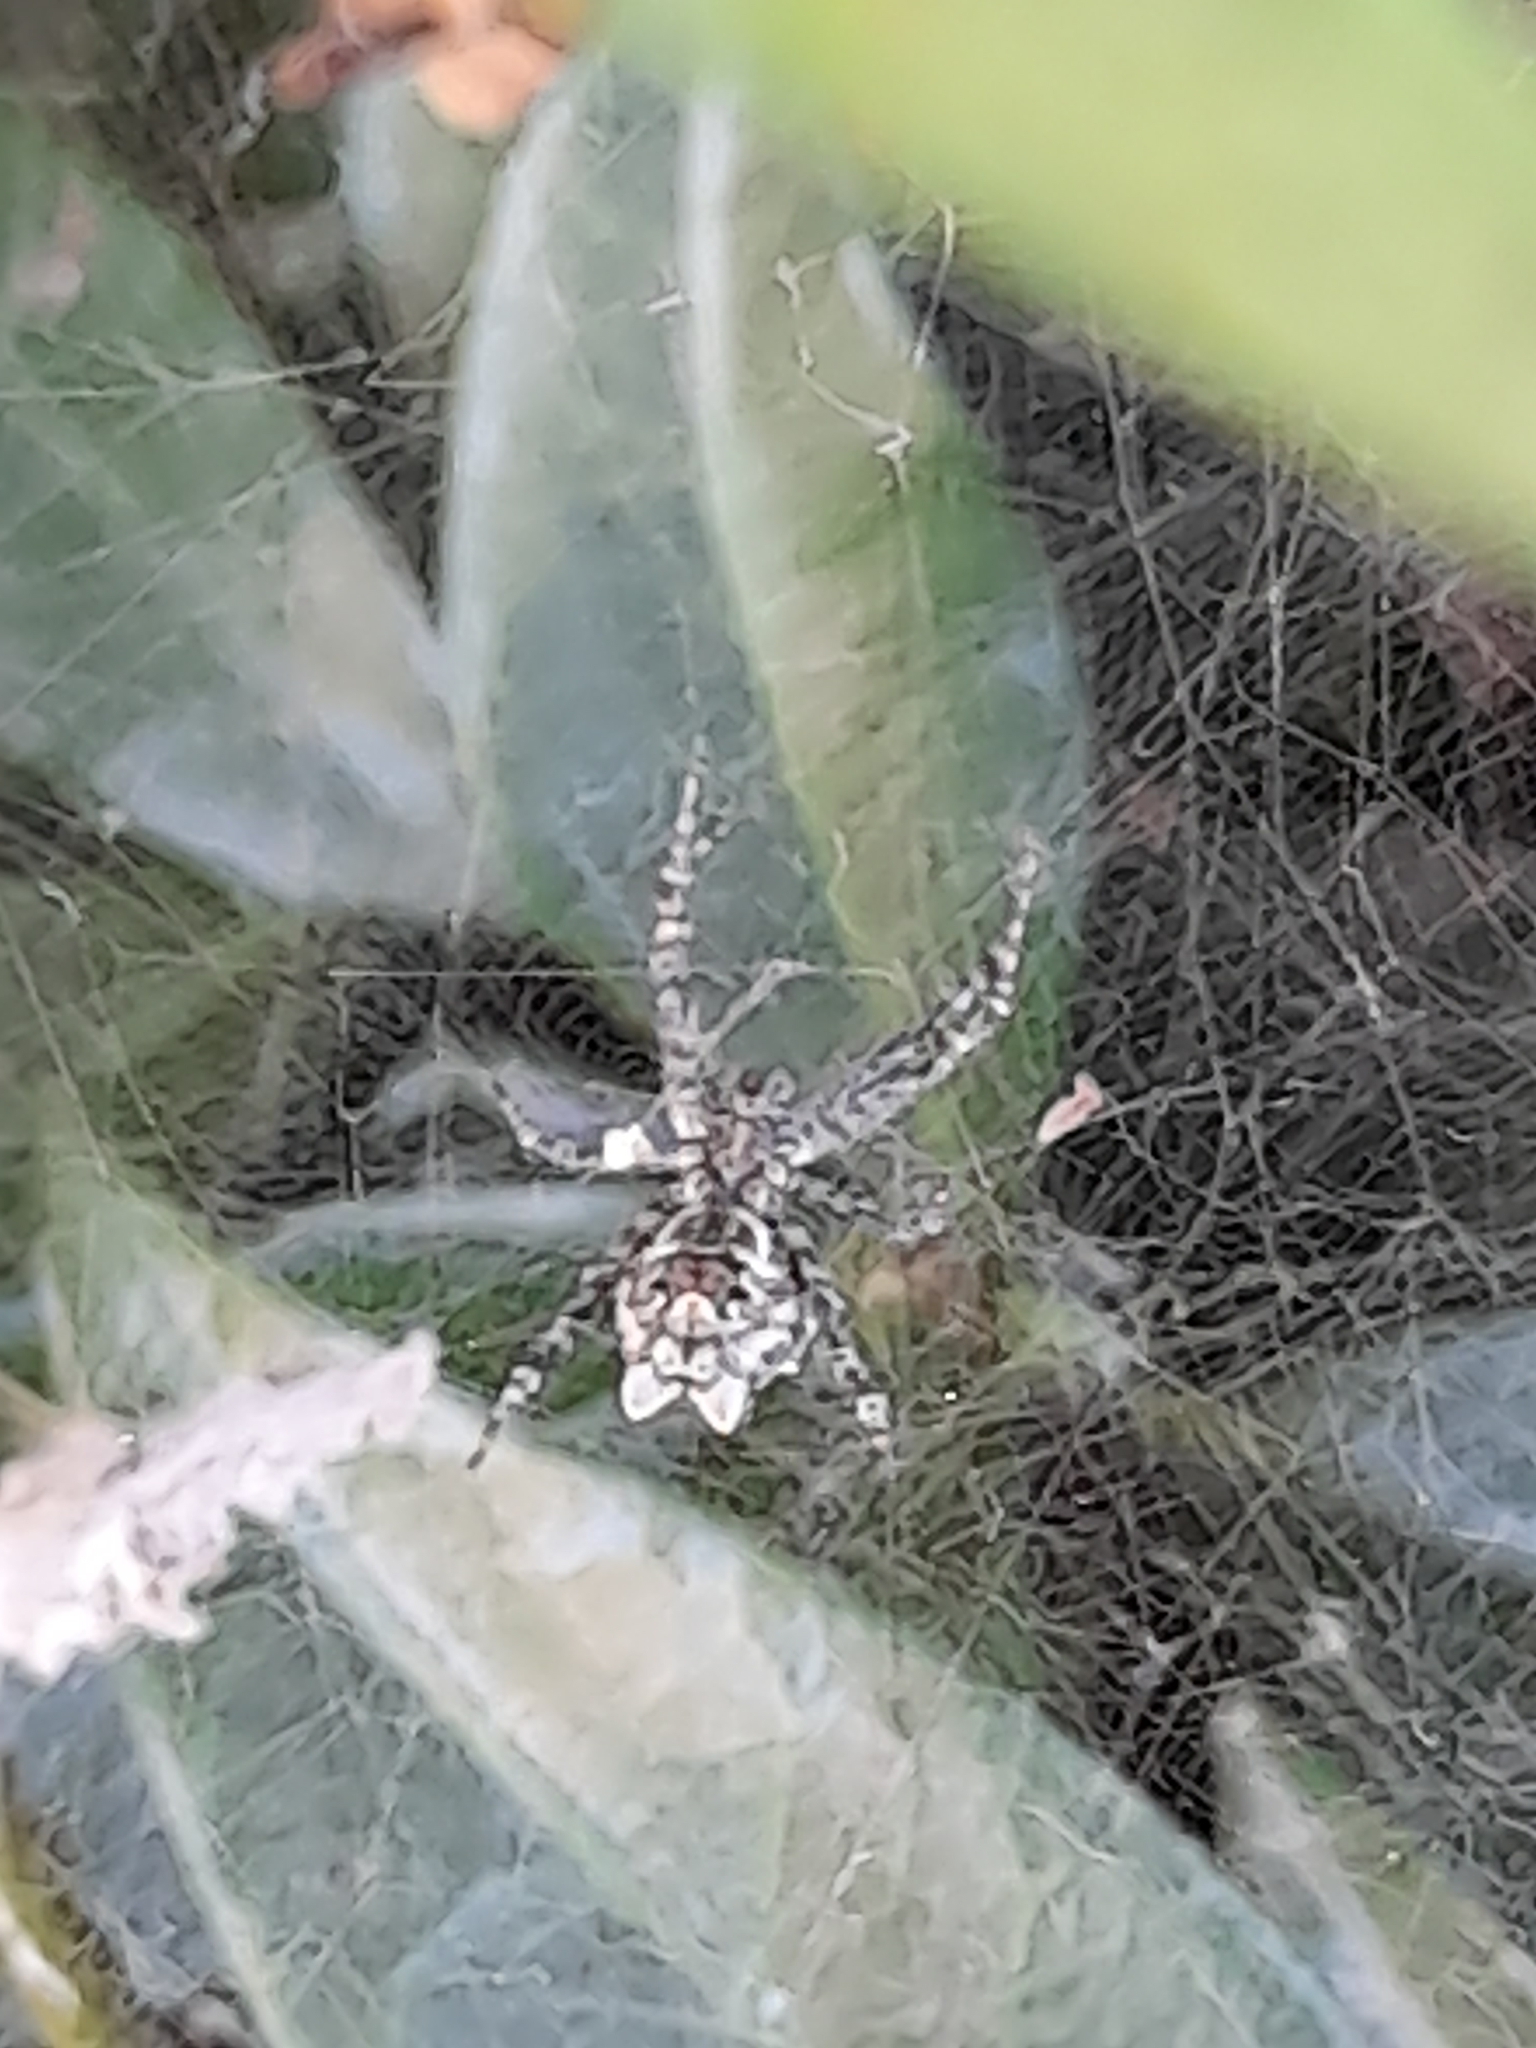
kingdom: Animalia
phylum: Arthropoda
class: Arachnida
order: Araneae
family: Araneidae
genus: Cyrtophora
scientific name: Cyrtophora citricola
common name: Orb weavers
